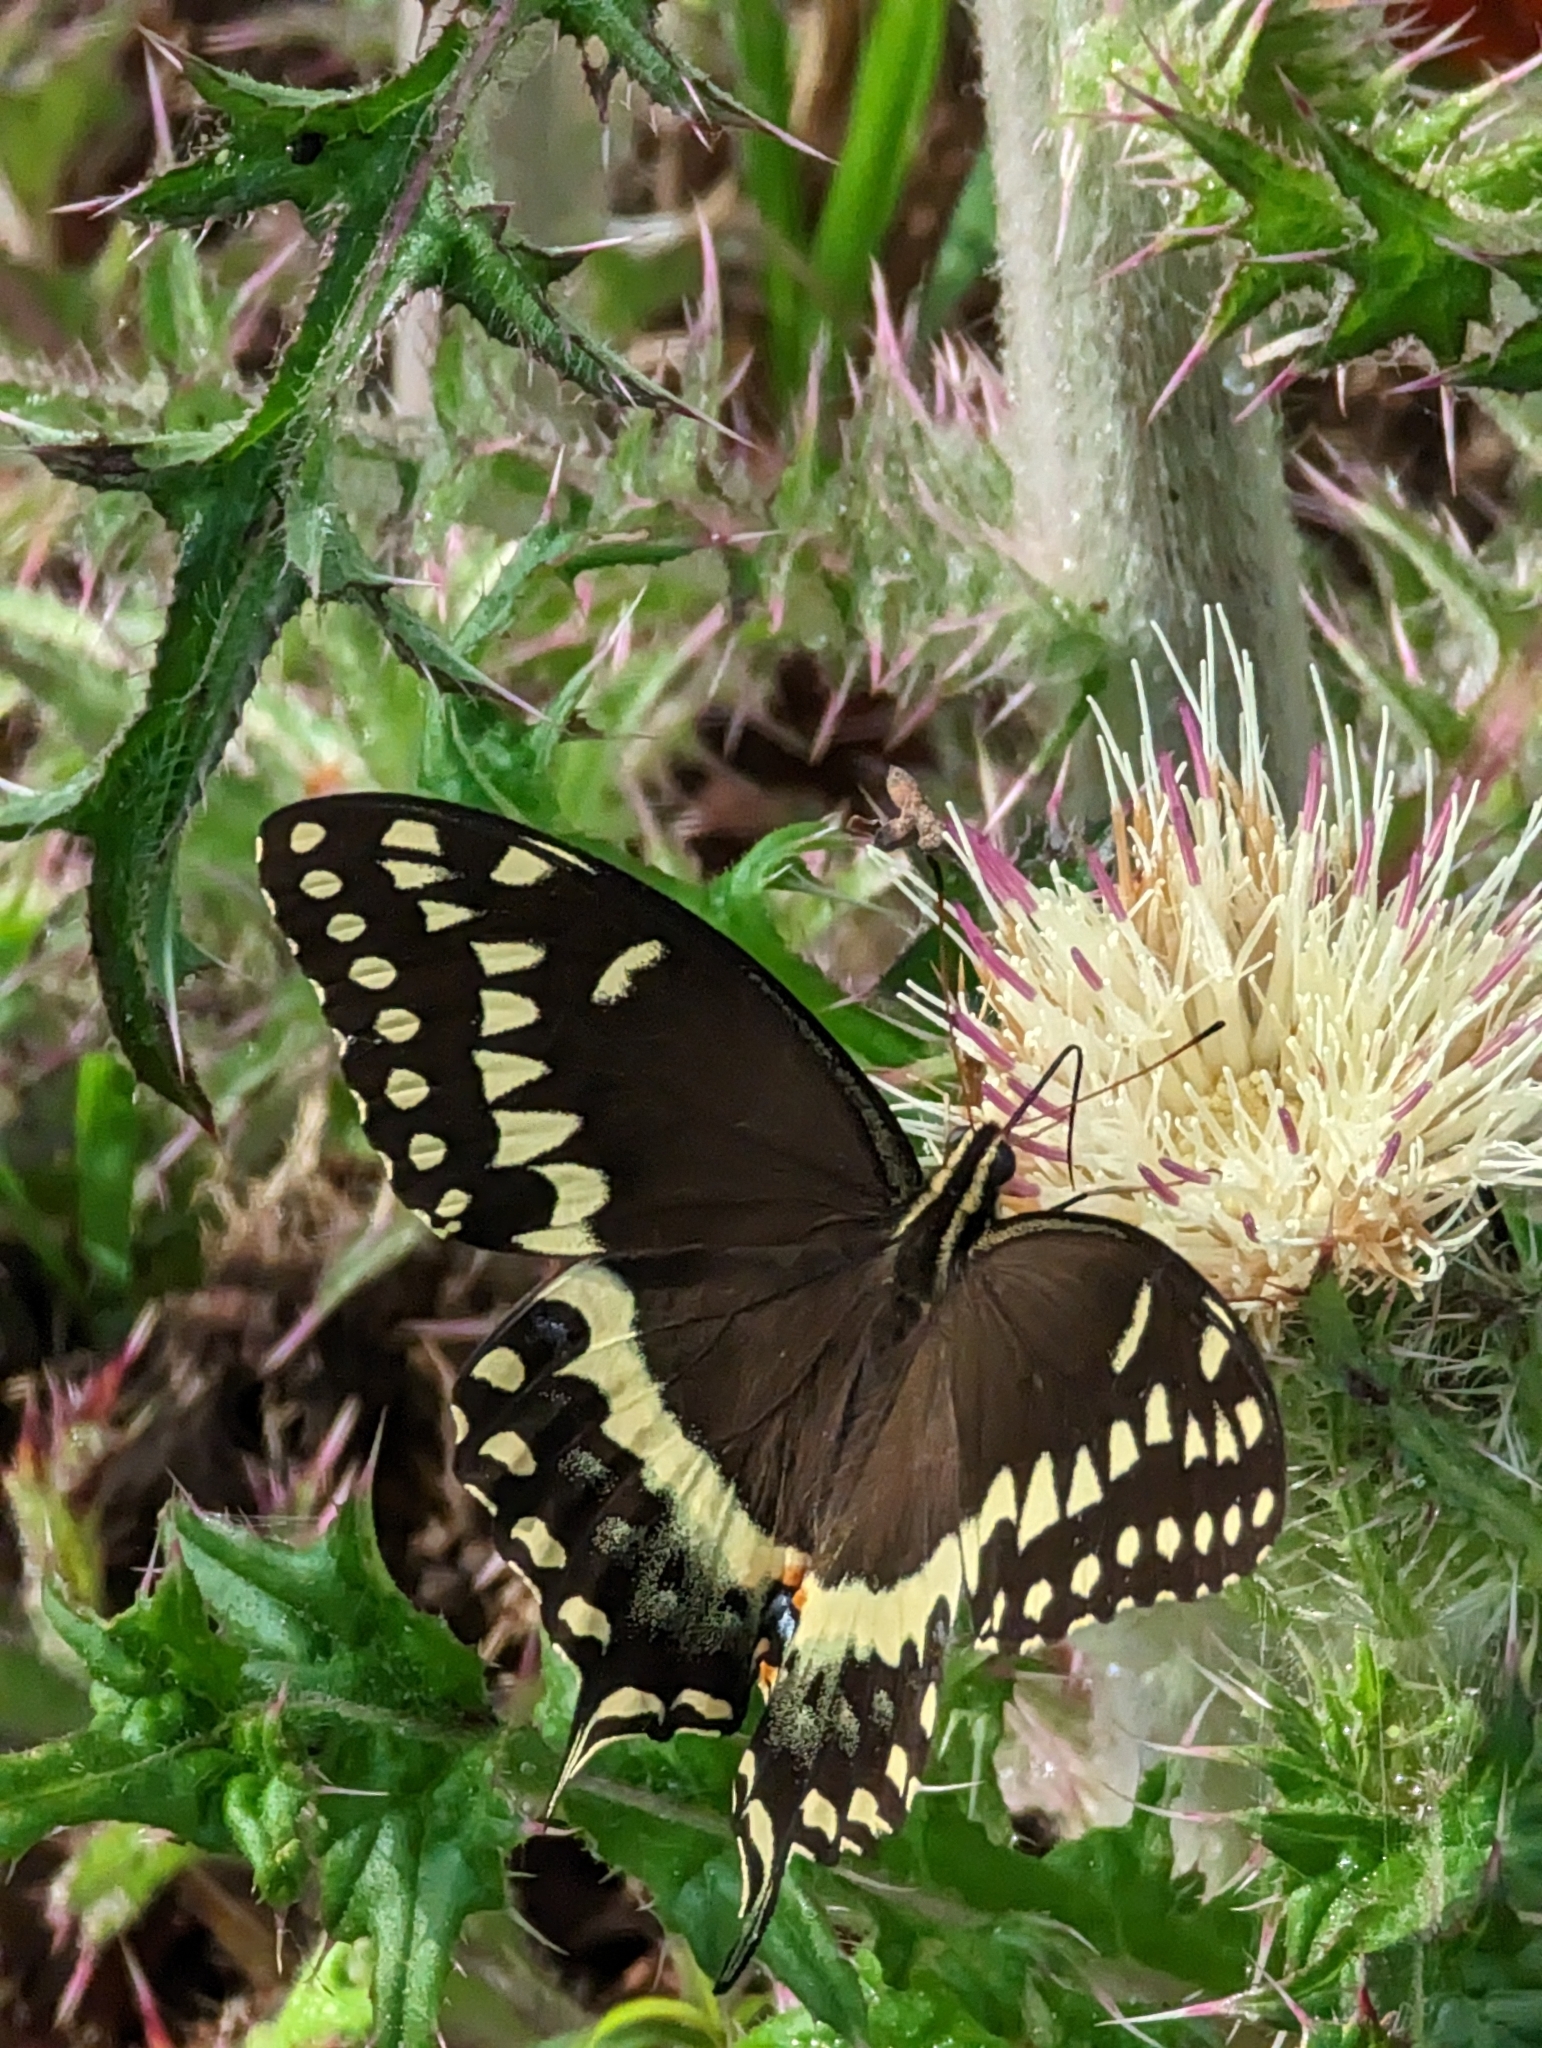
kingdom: Animalia
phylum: Arthropoda
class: Insecta
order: Lepidoptera
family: Papilionidae
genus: Papilio
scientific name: Papilio palamedes
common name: Palamedes swallowtail
